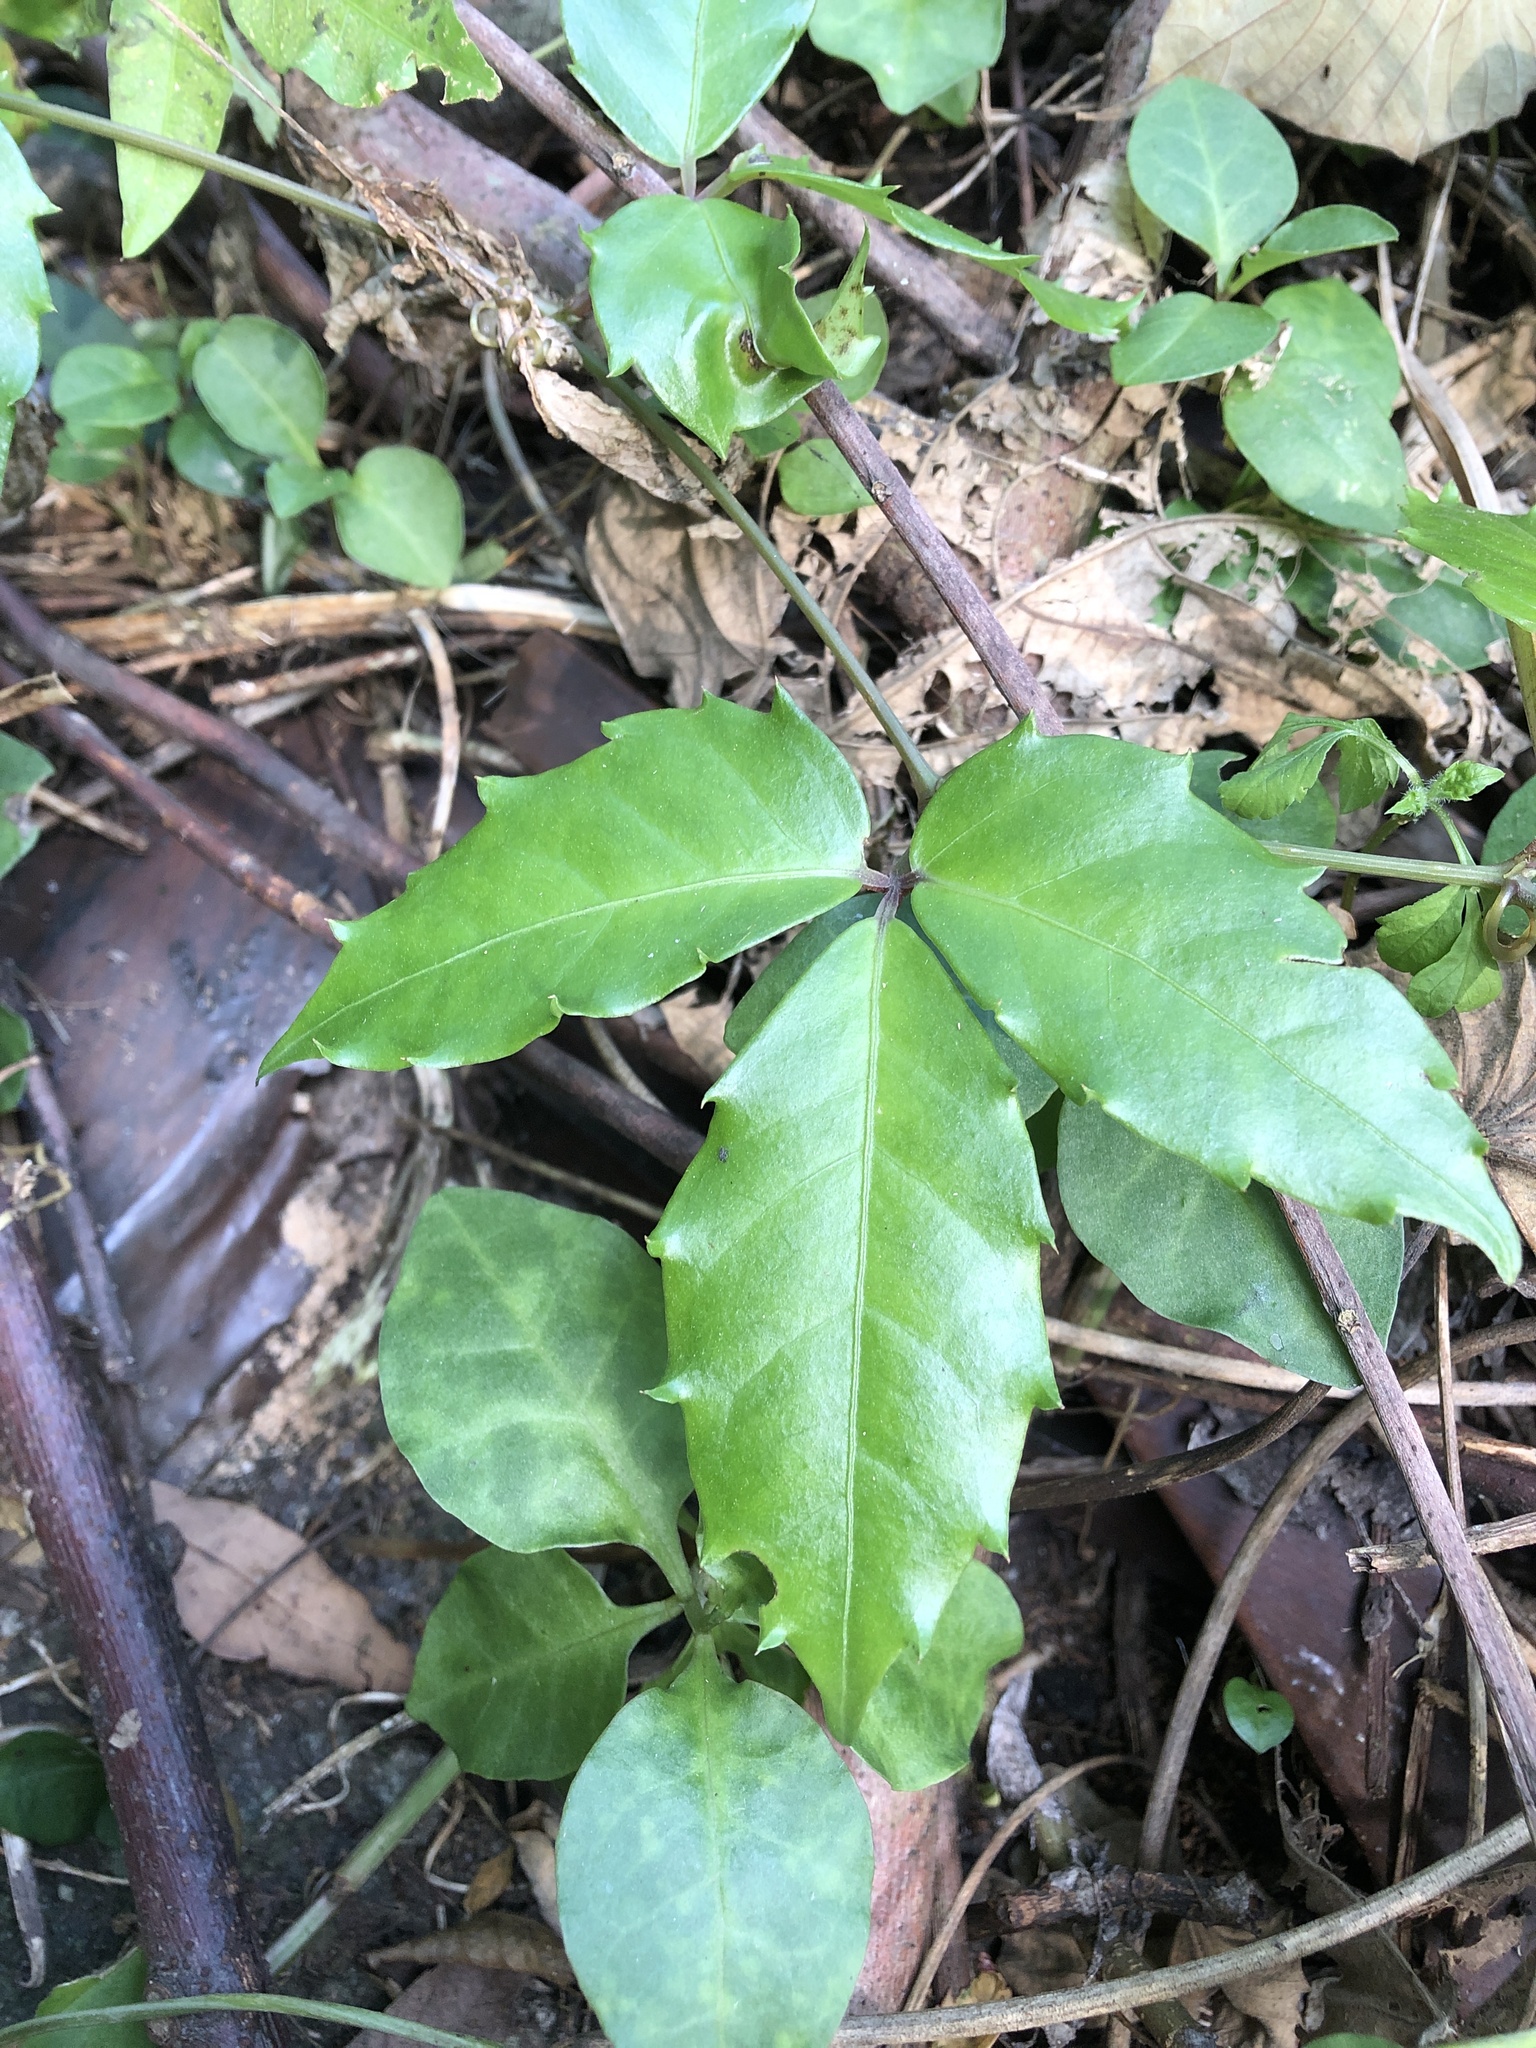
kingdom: Plantae
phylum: Tracheophyta
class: Magnoliopsida
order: Vitales
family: Vitaceae
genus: Tetrastigma
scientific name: Tetrastigma hemsleyanum
